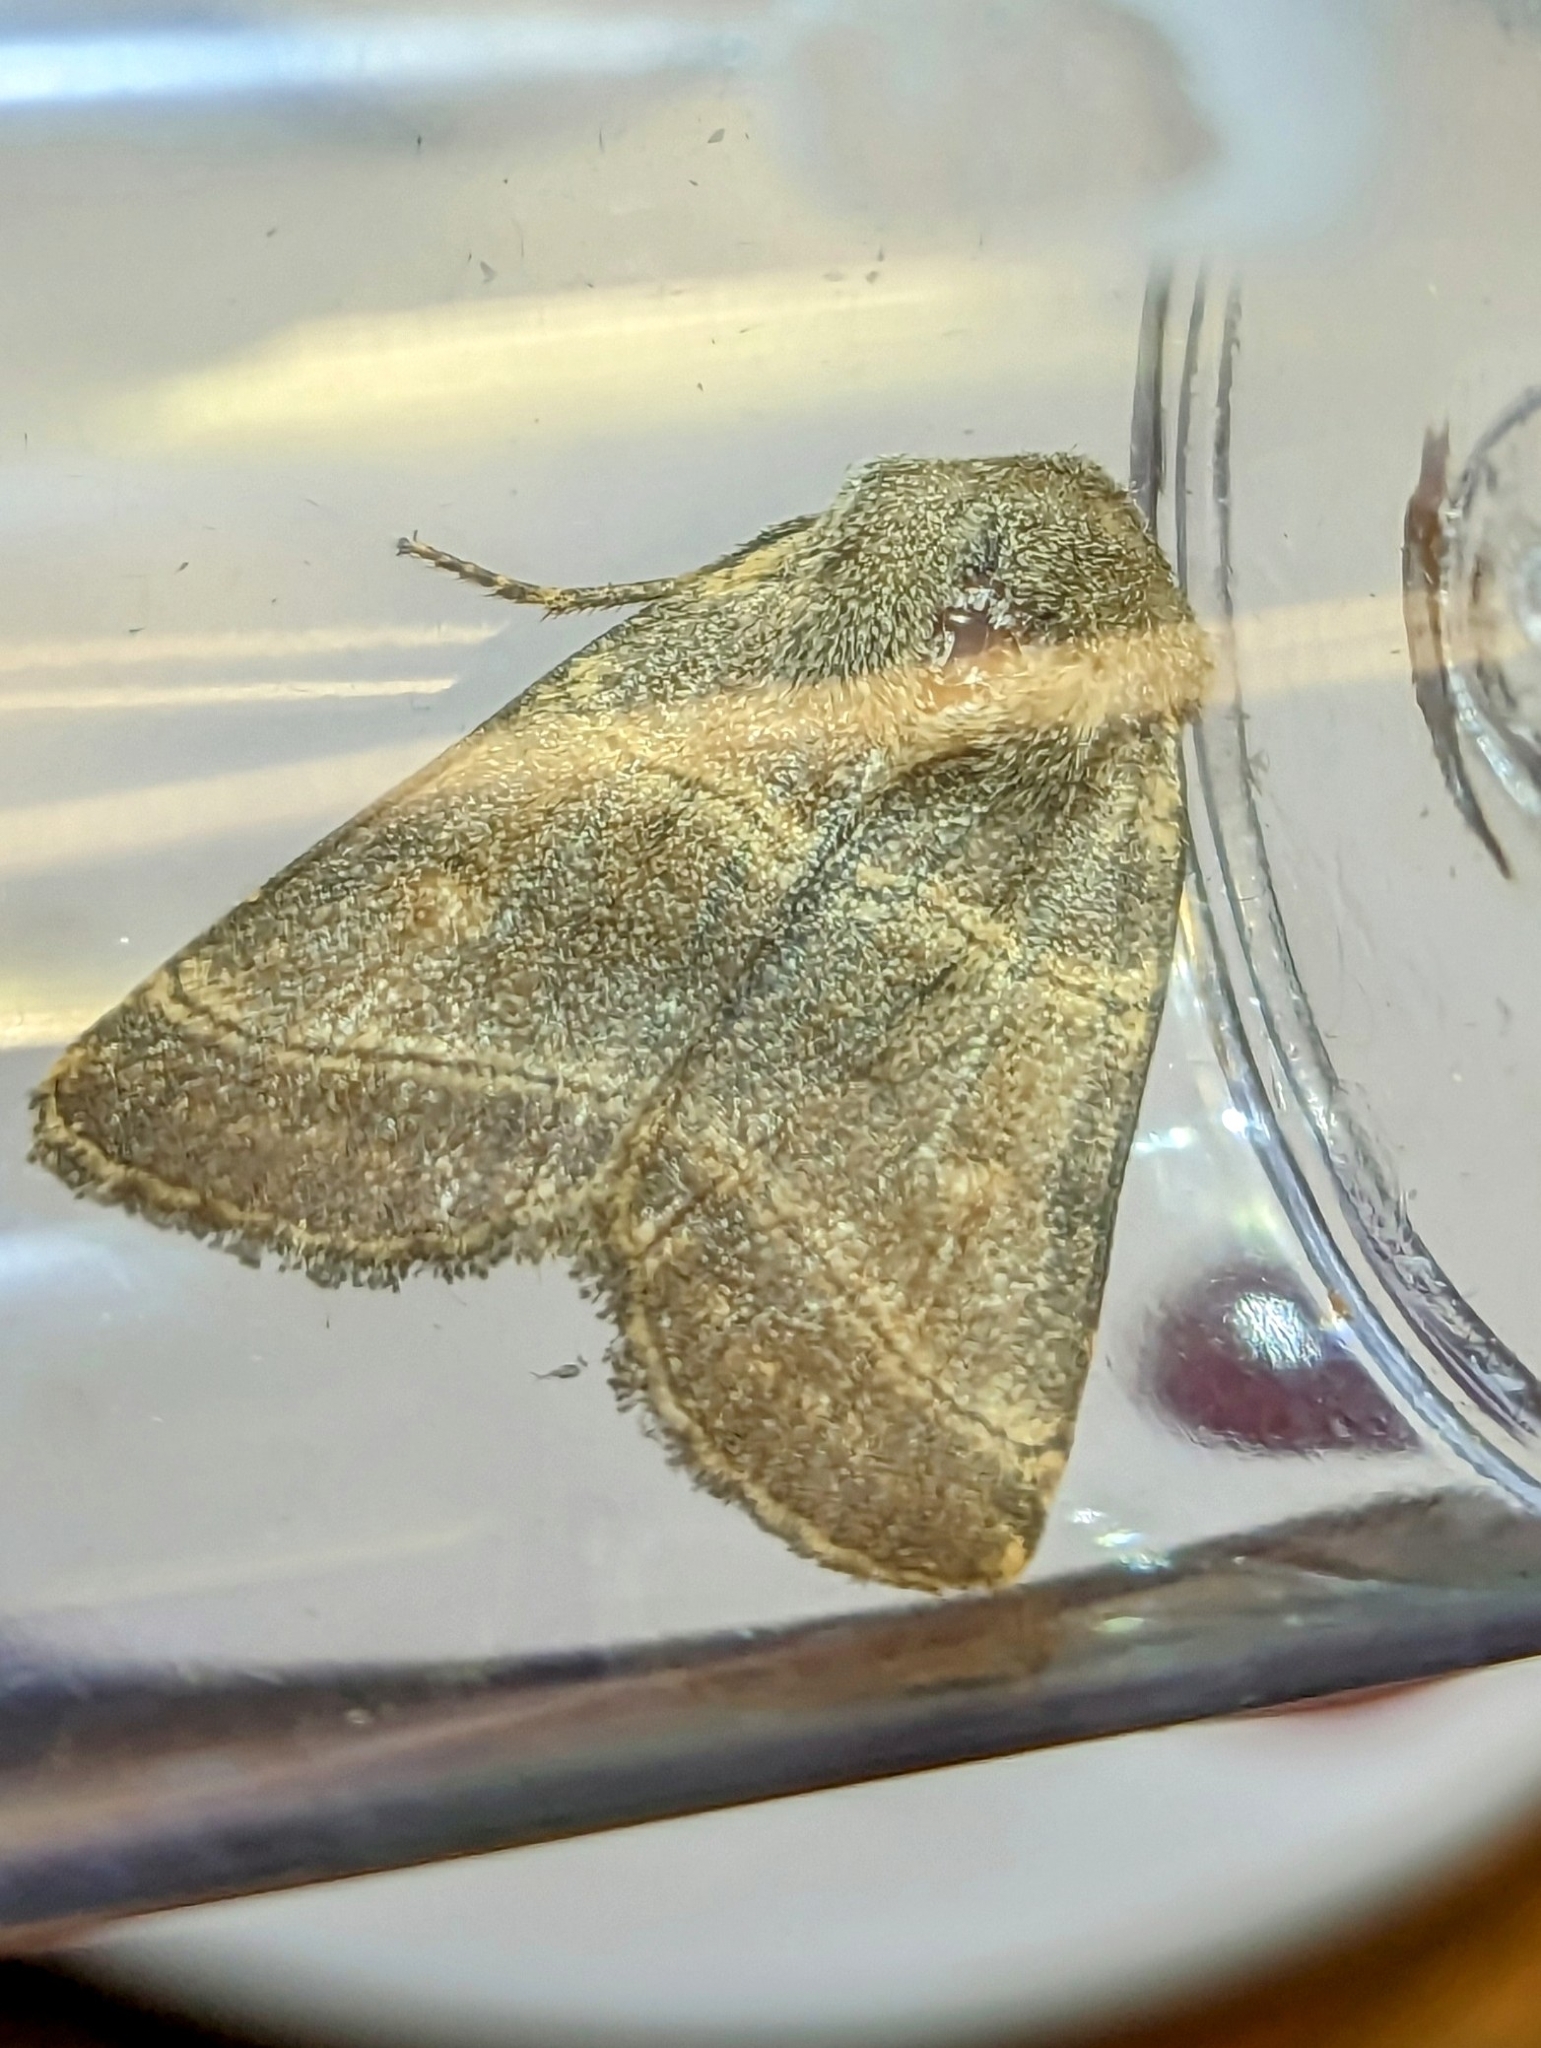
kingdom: Animalia
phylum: Arthropoda
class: Insecta
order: Lepidoptera
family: Noctuidae
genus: Charanyca
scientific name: Charanyca trigrammica
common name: Treble lines
